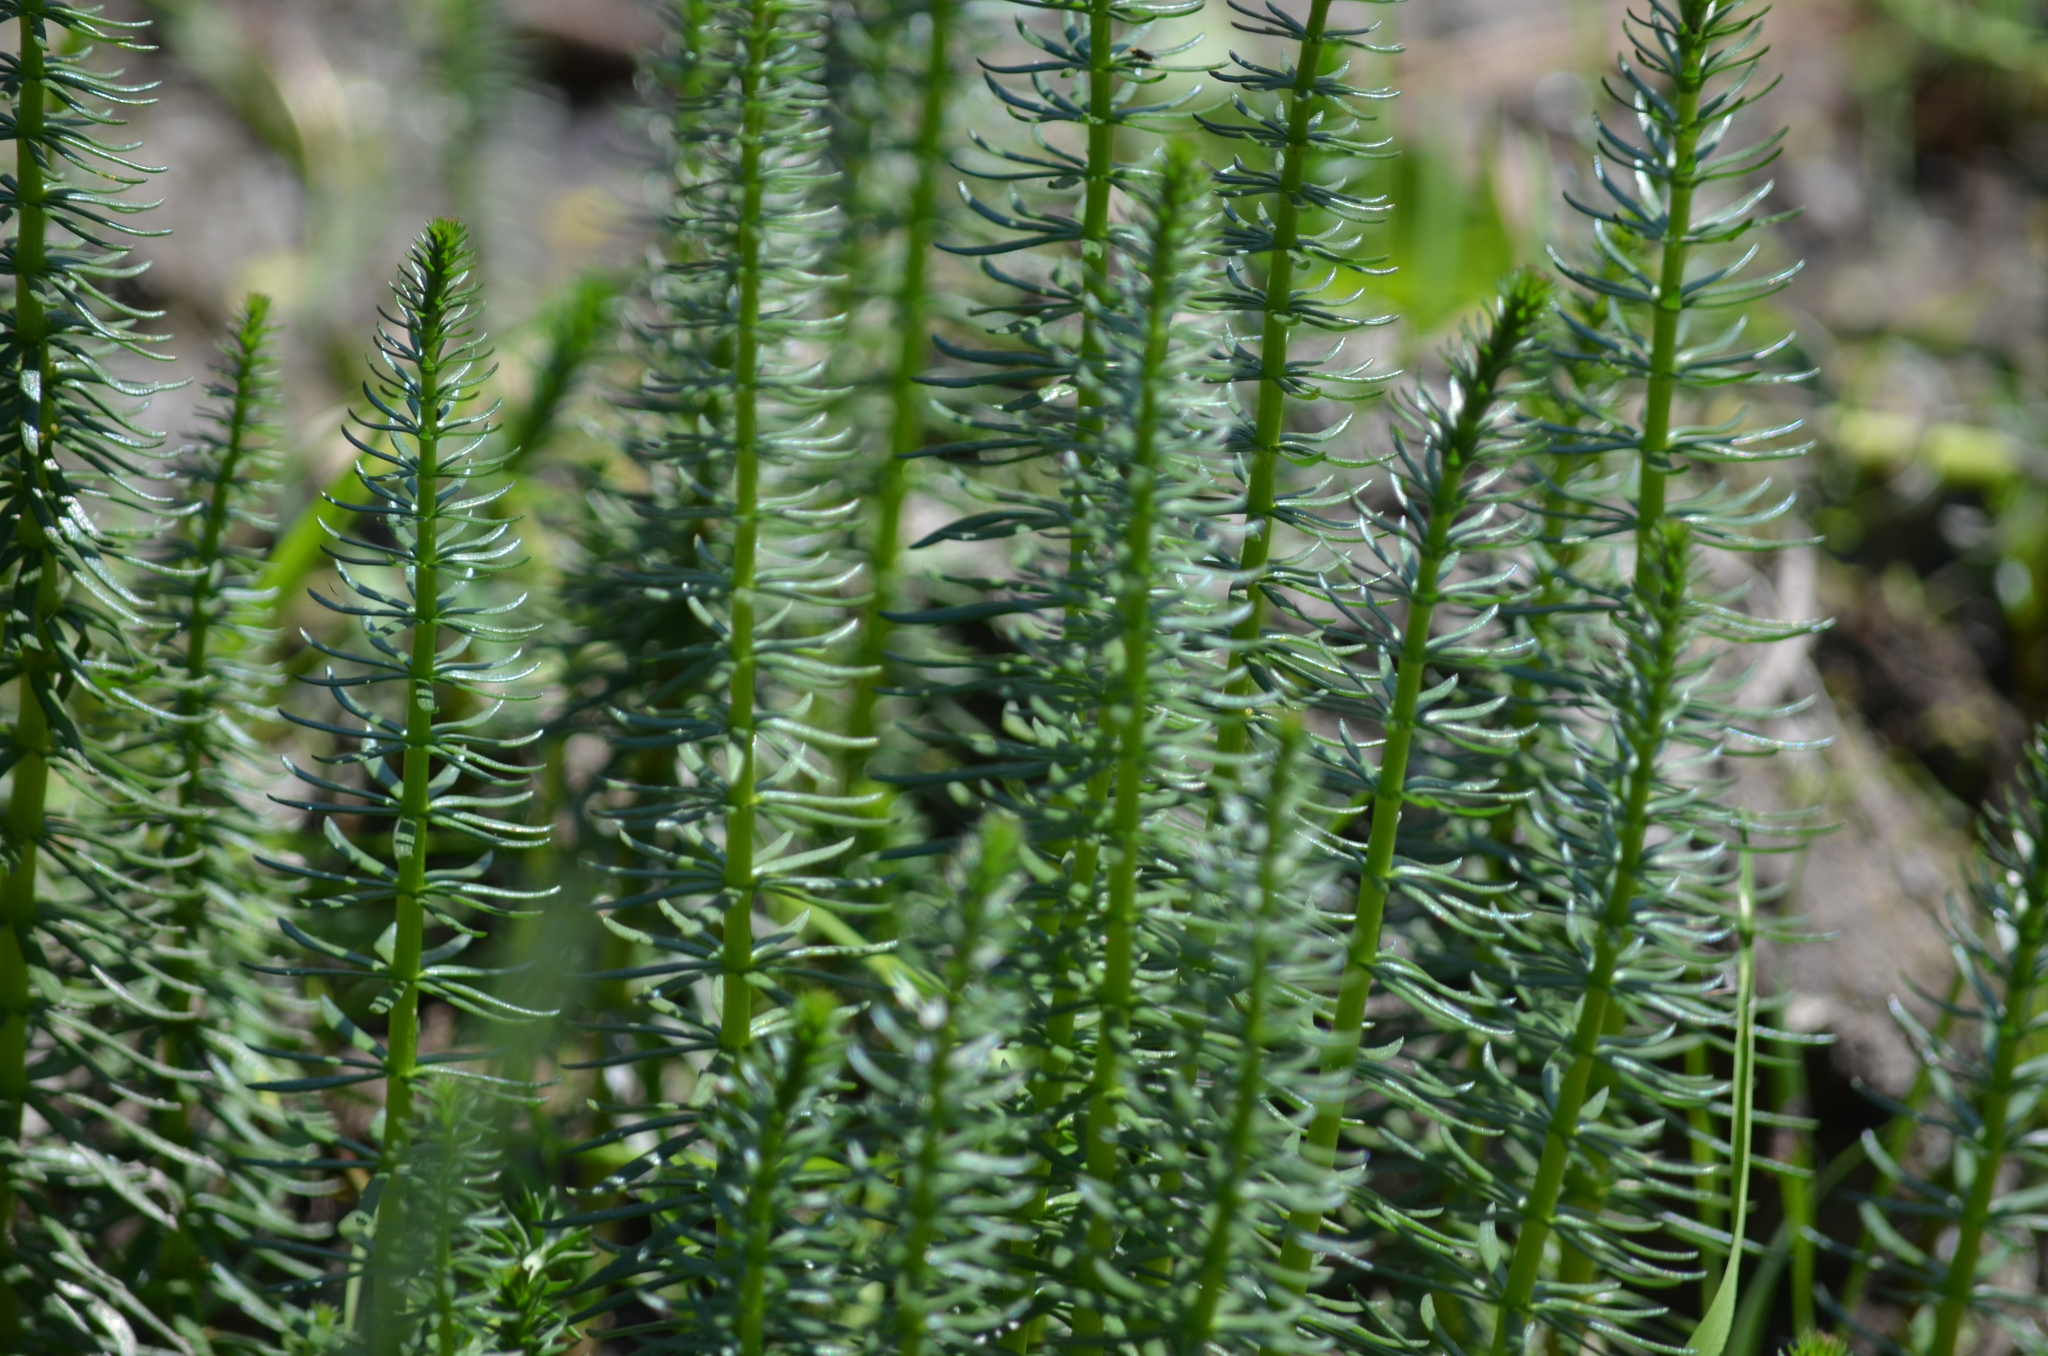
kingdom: Plantae
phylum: Tracheophyta
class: Magnoliopsida
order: Lamiales
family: Plantaginaceae
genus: Hippuris
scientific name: Hippuris vulgaris
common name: Mare's-tail
